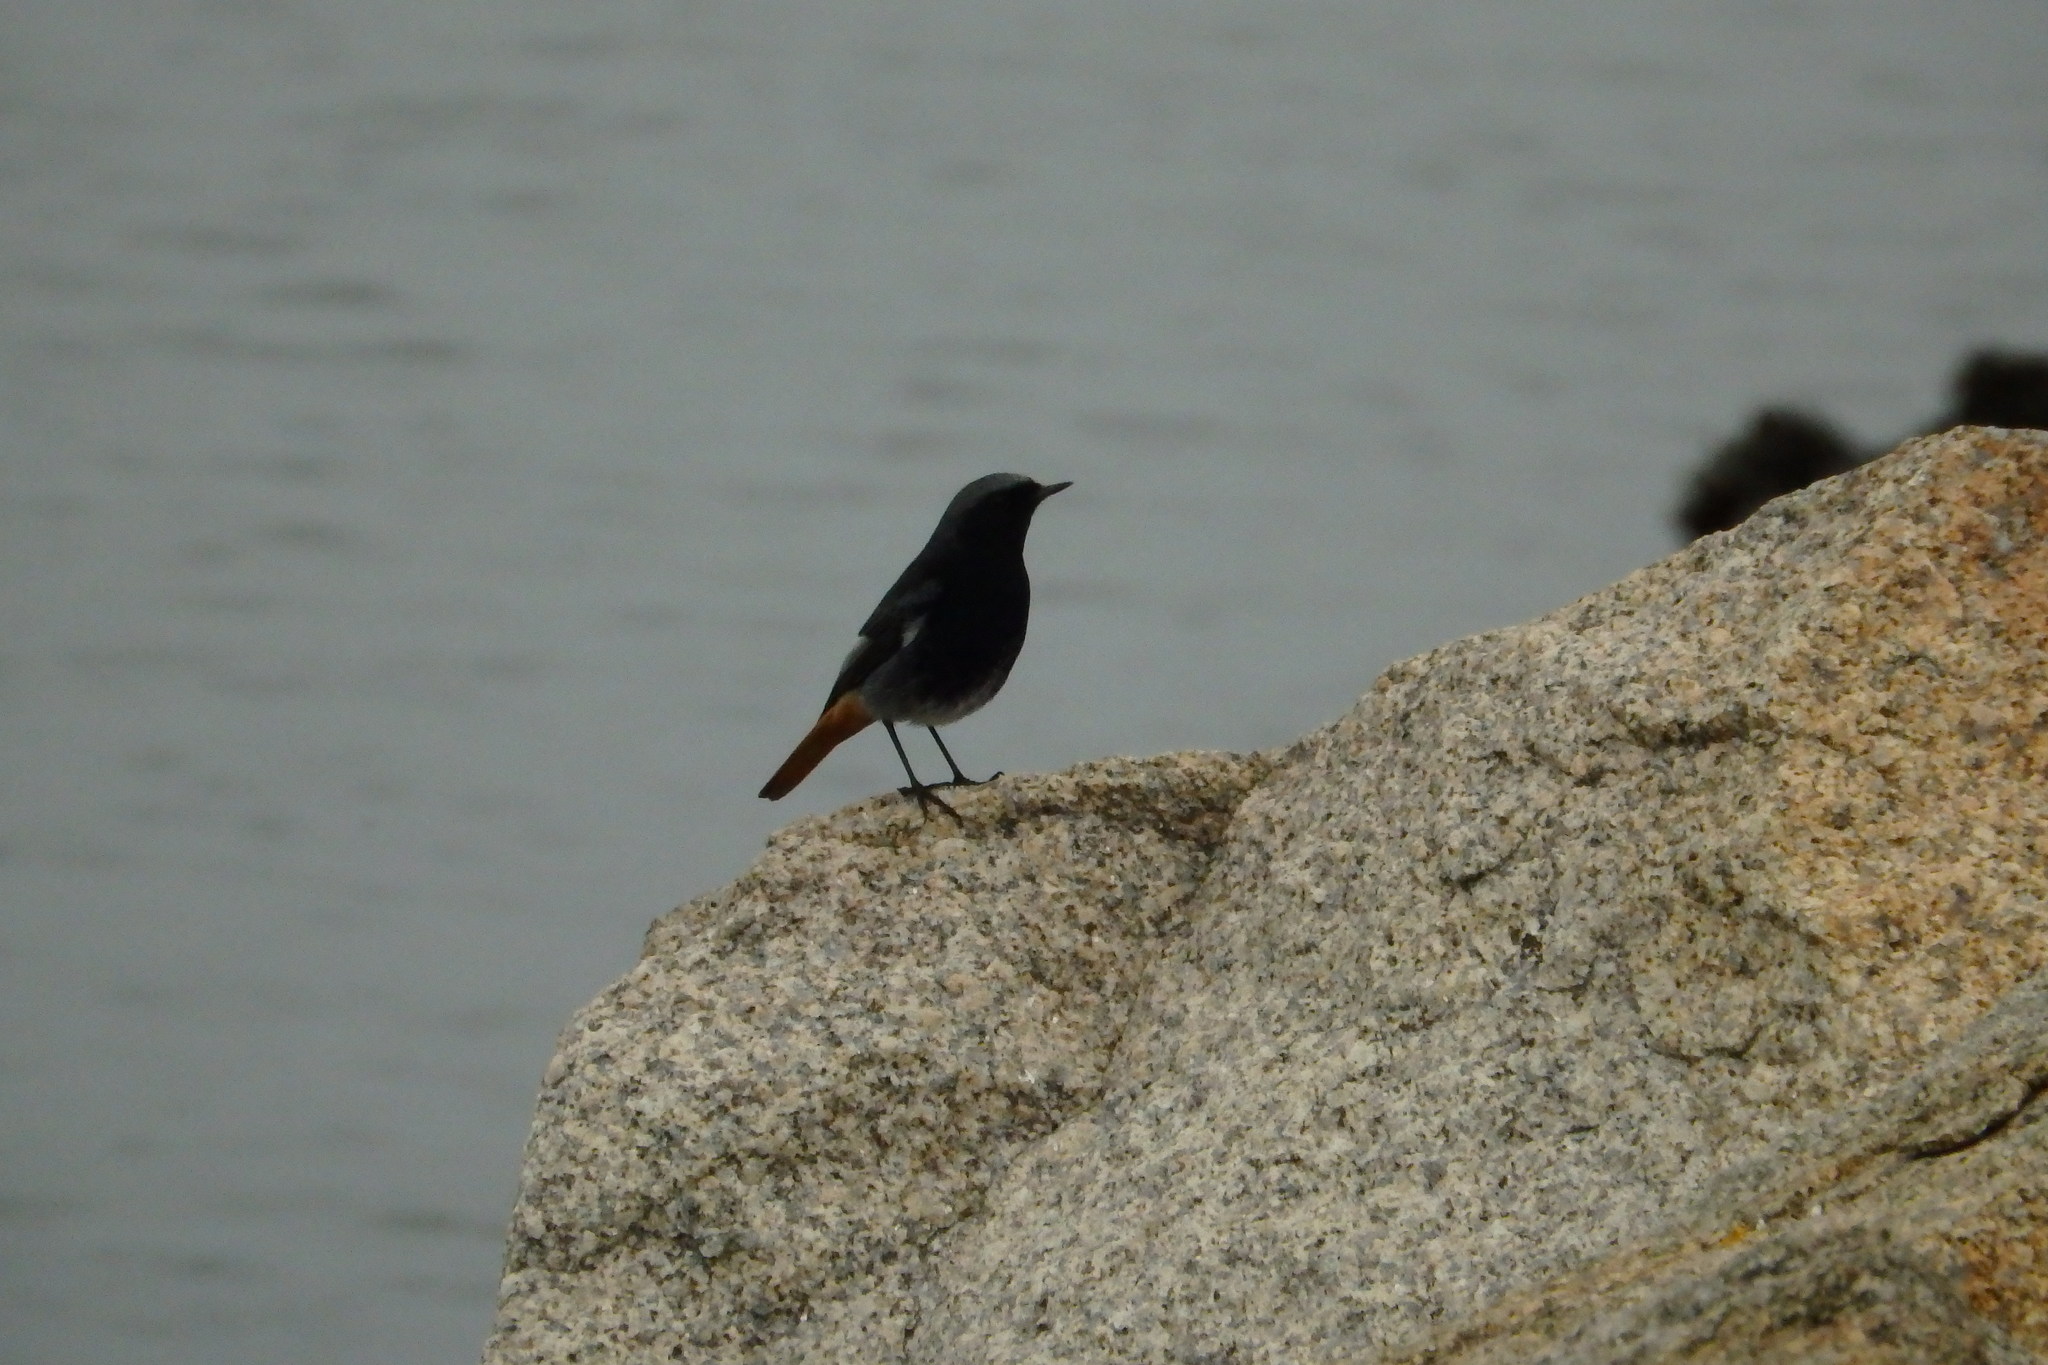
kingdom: Animalia
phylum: Chordata
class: Aves
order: Passeriformes
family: Muscicapidae
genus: Phoenicurus
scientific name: Phoenicurus ochruros
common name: Black redstart
